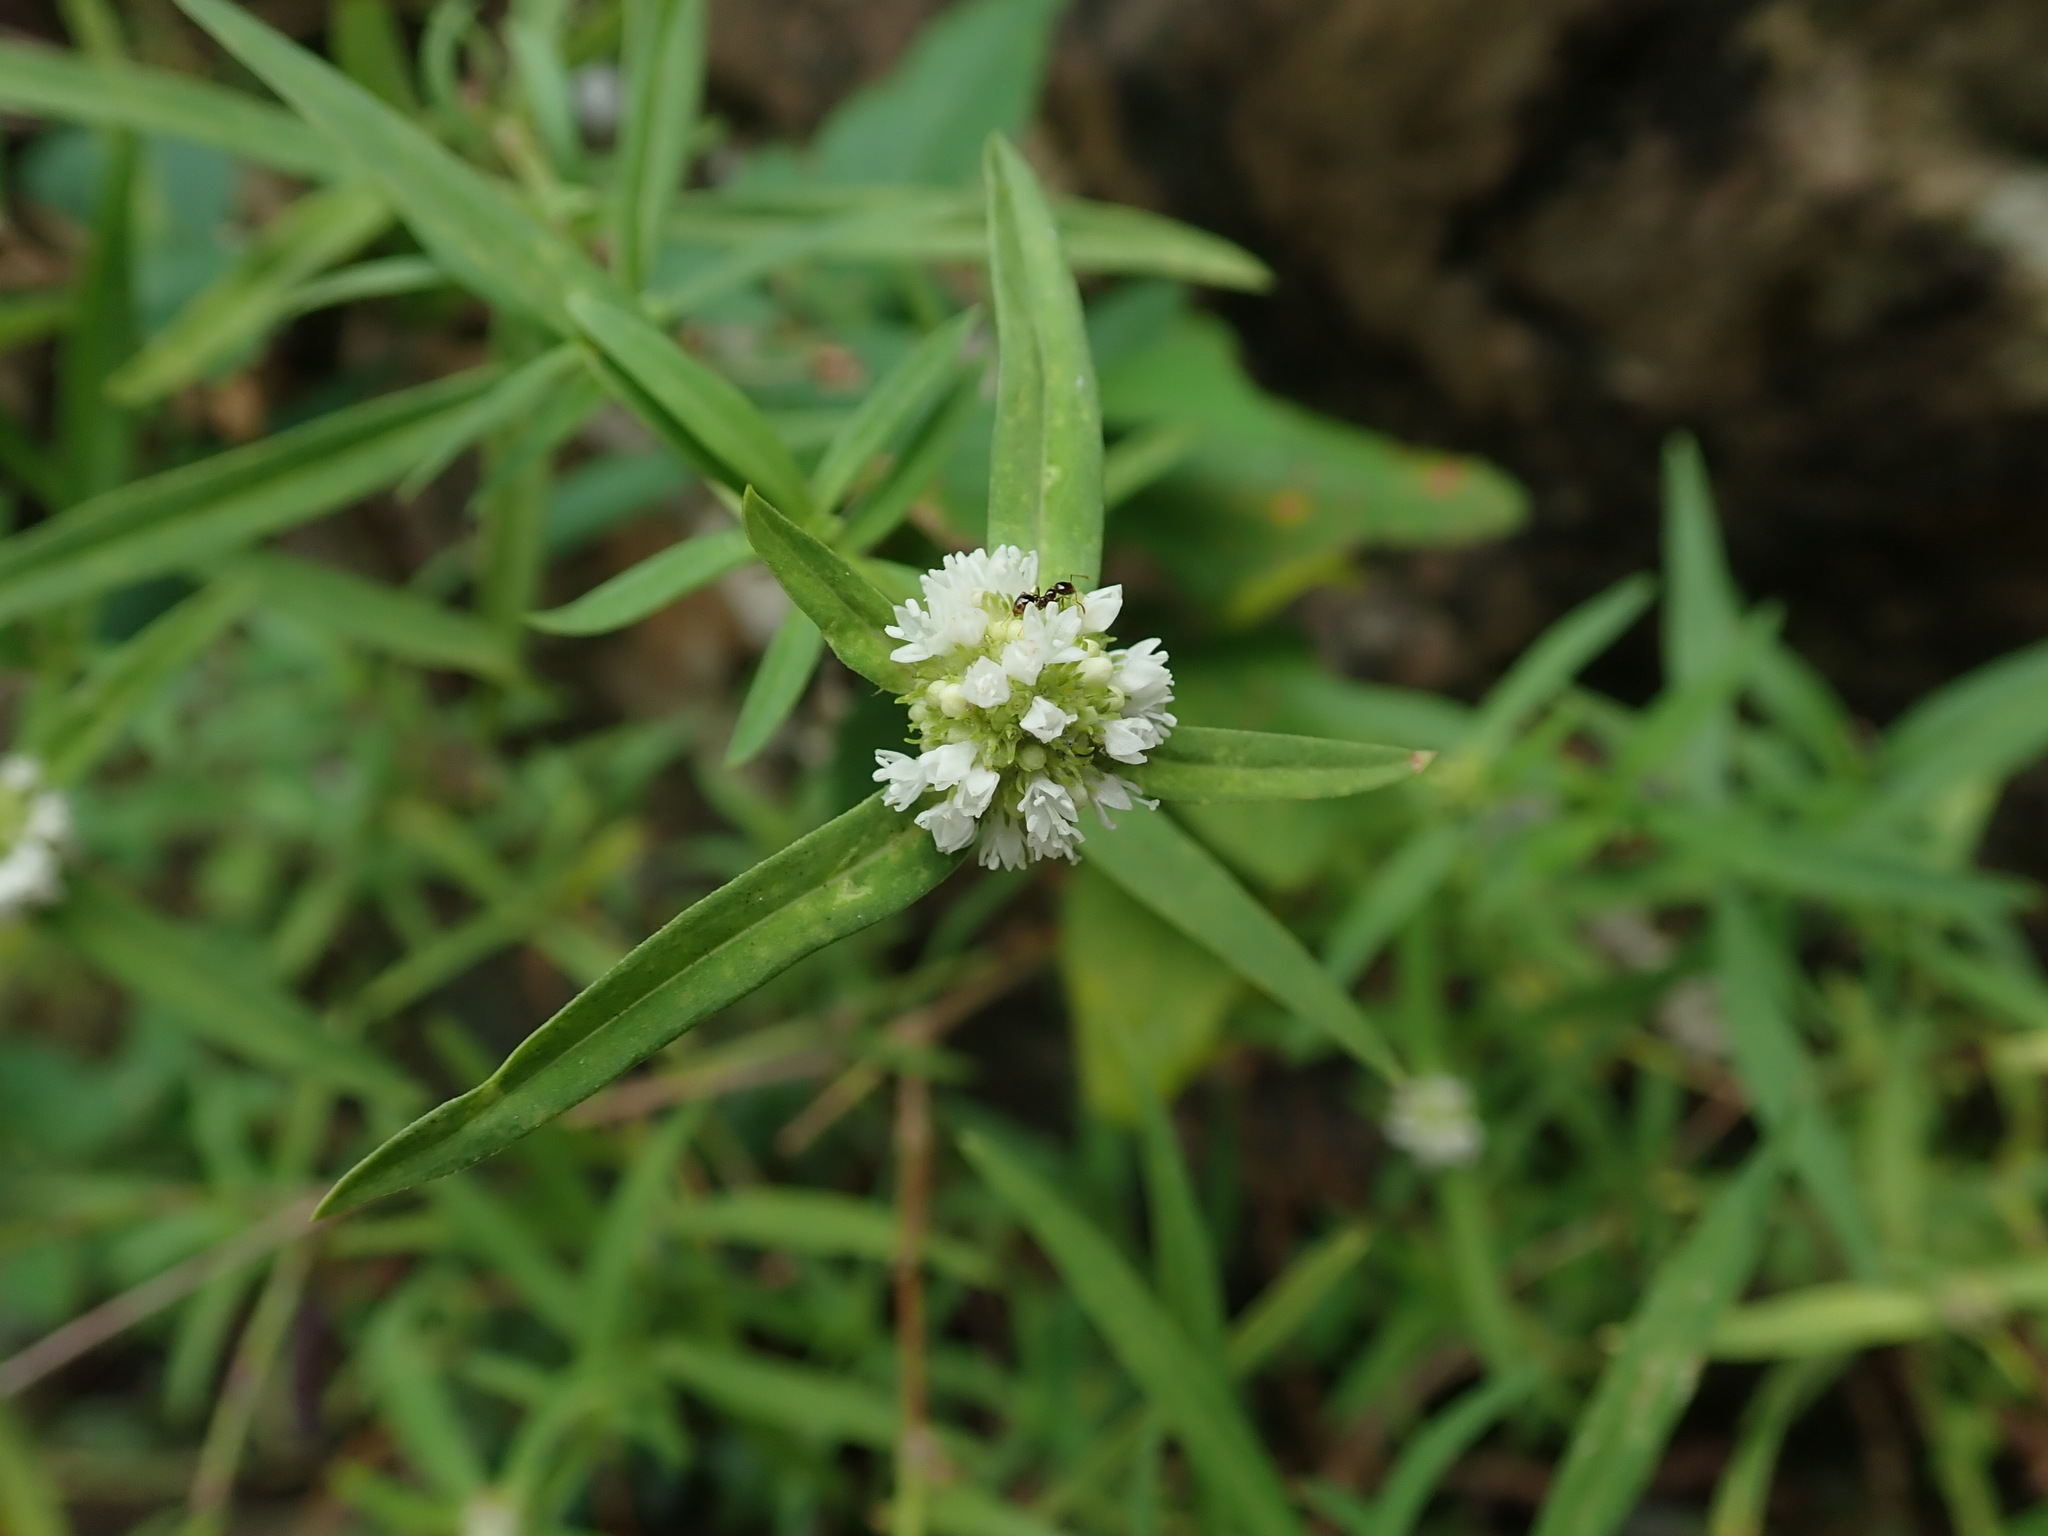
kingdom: Plantae
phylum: Tracheophyta
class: Magnoliopsida
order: Gentianales
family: Rubiaceae
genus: Spermacoce
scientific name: Spermacoce verticillata
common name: Shrubby false buttonweed
